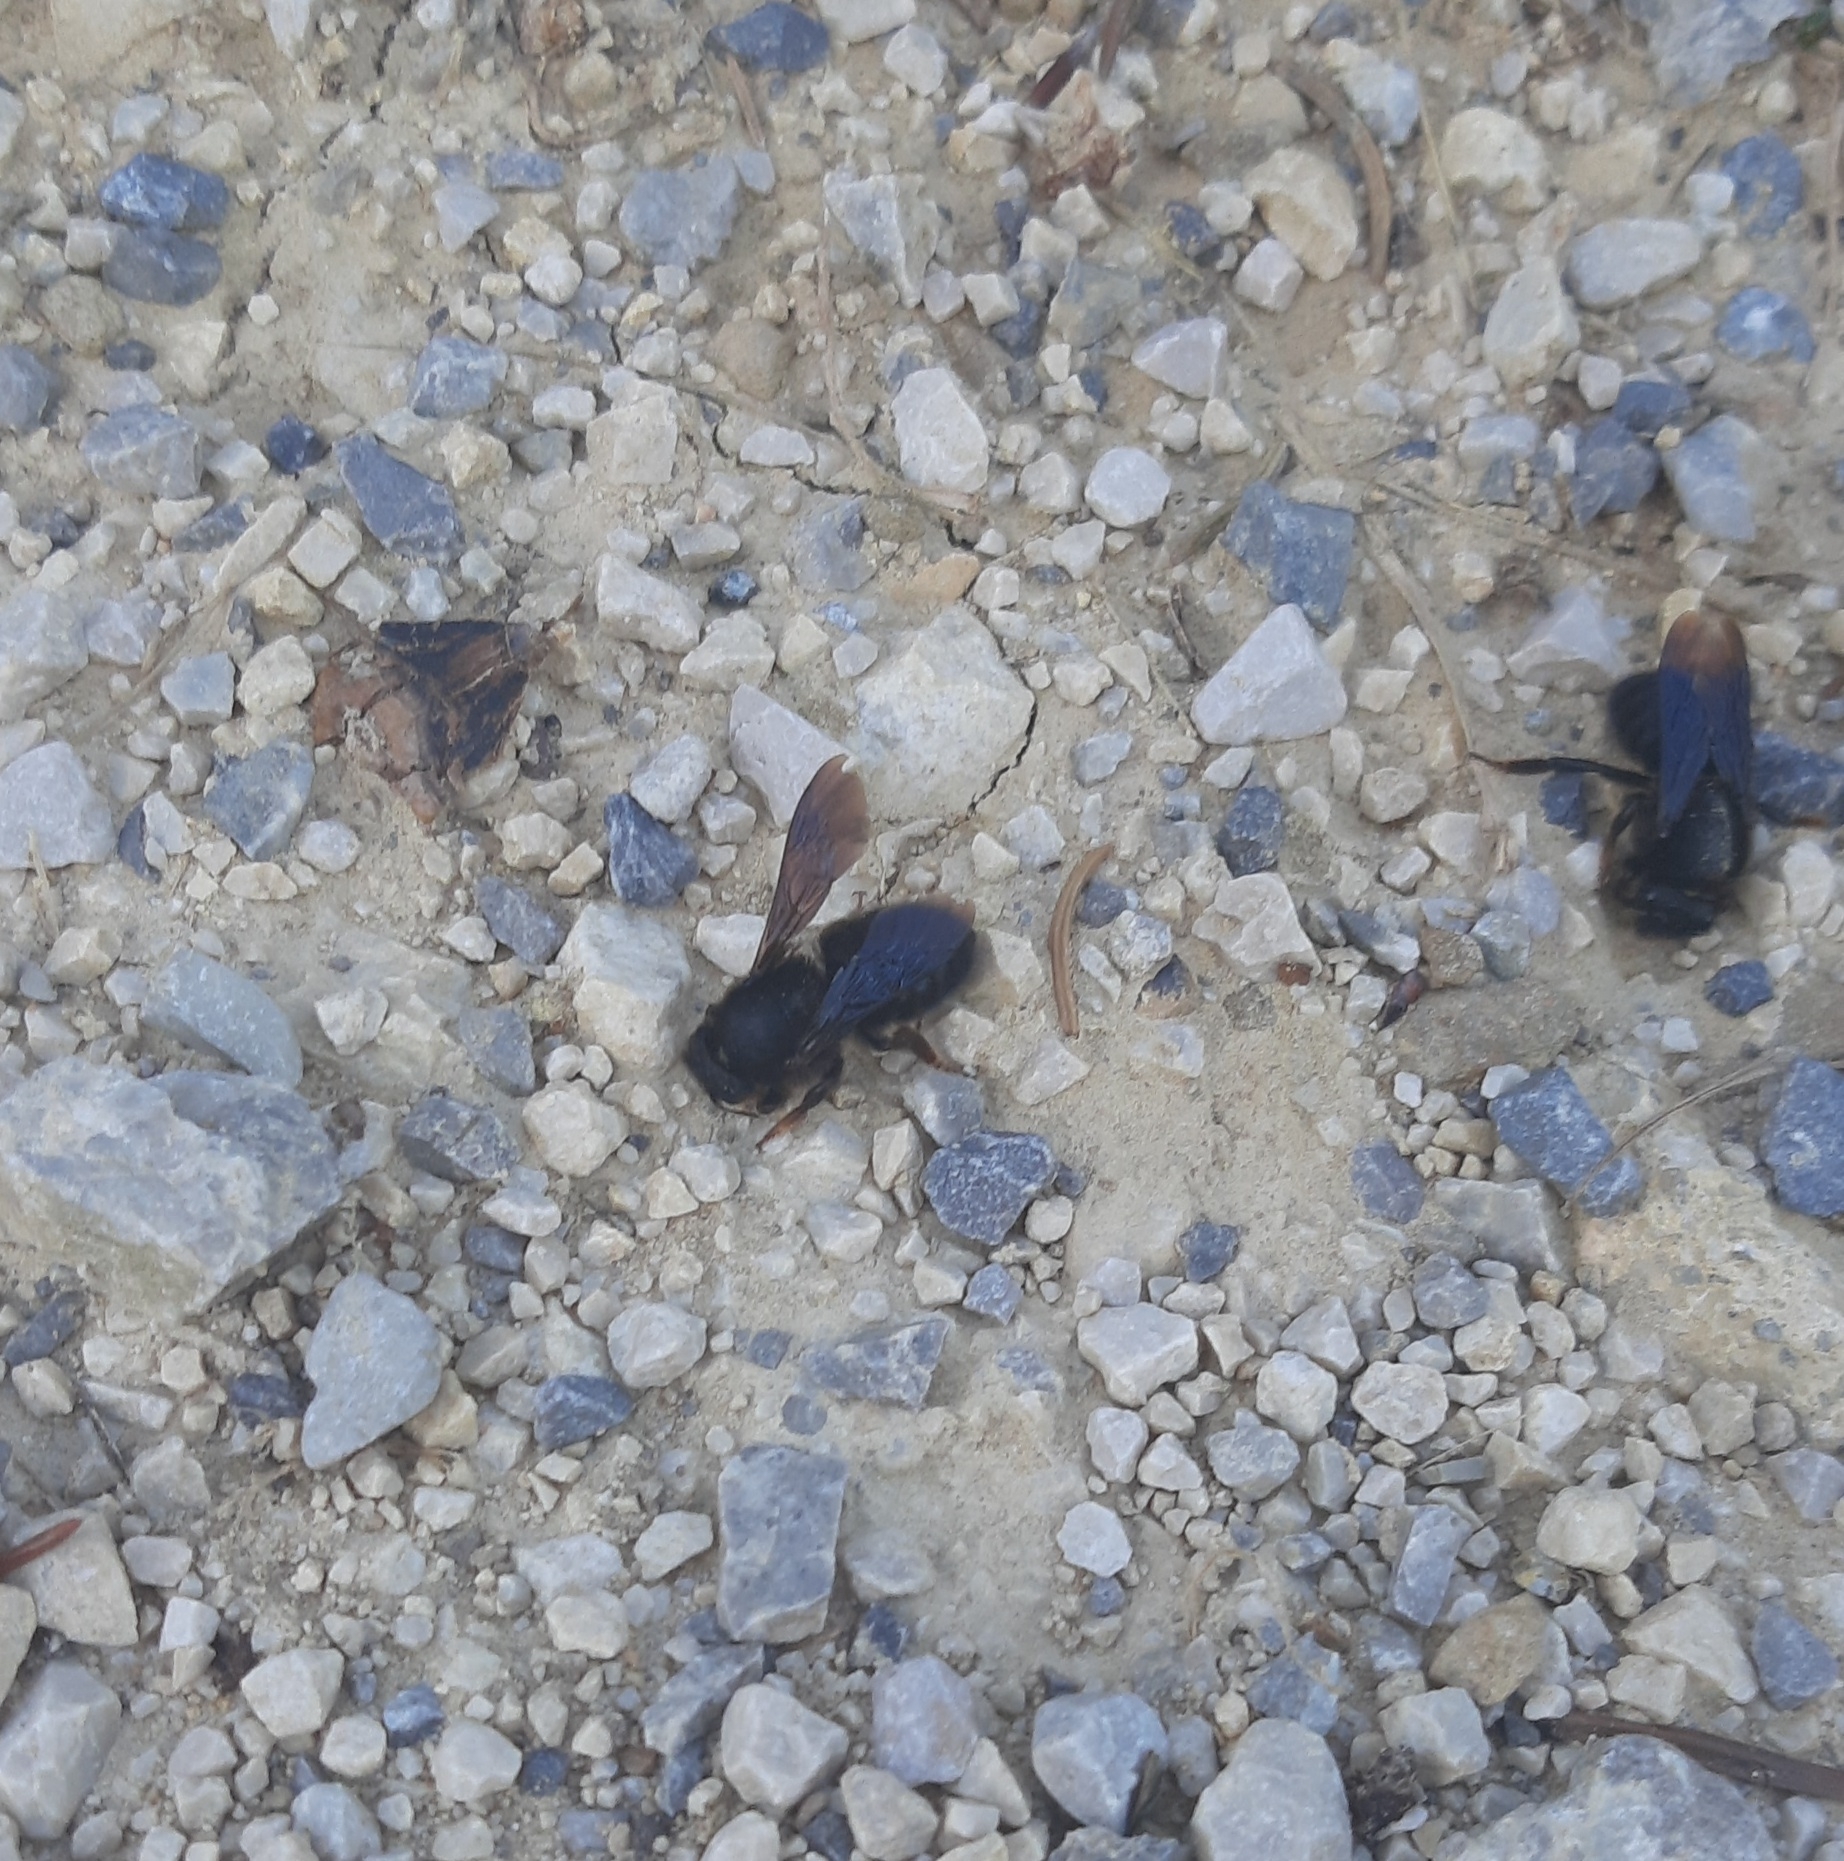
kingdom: Animalia
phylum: Arthropoda
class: Insecta
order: Hymenoptera
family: Megachilidae
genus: Megachile
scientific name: Megachile parietina
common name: Black mud bee
